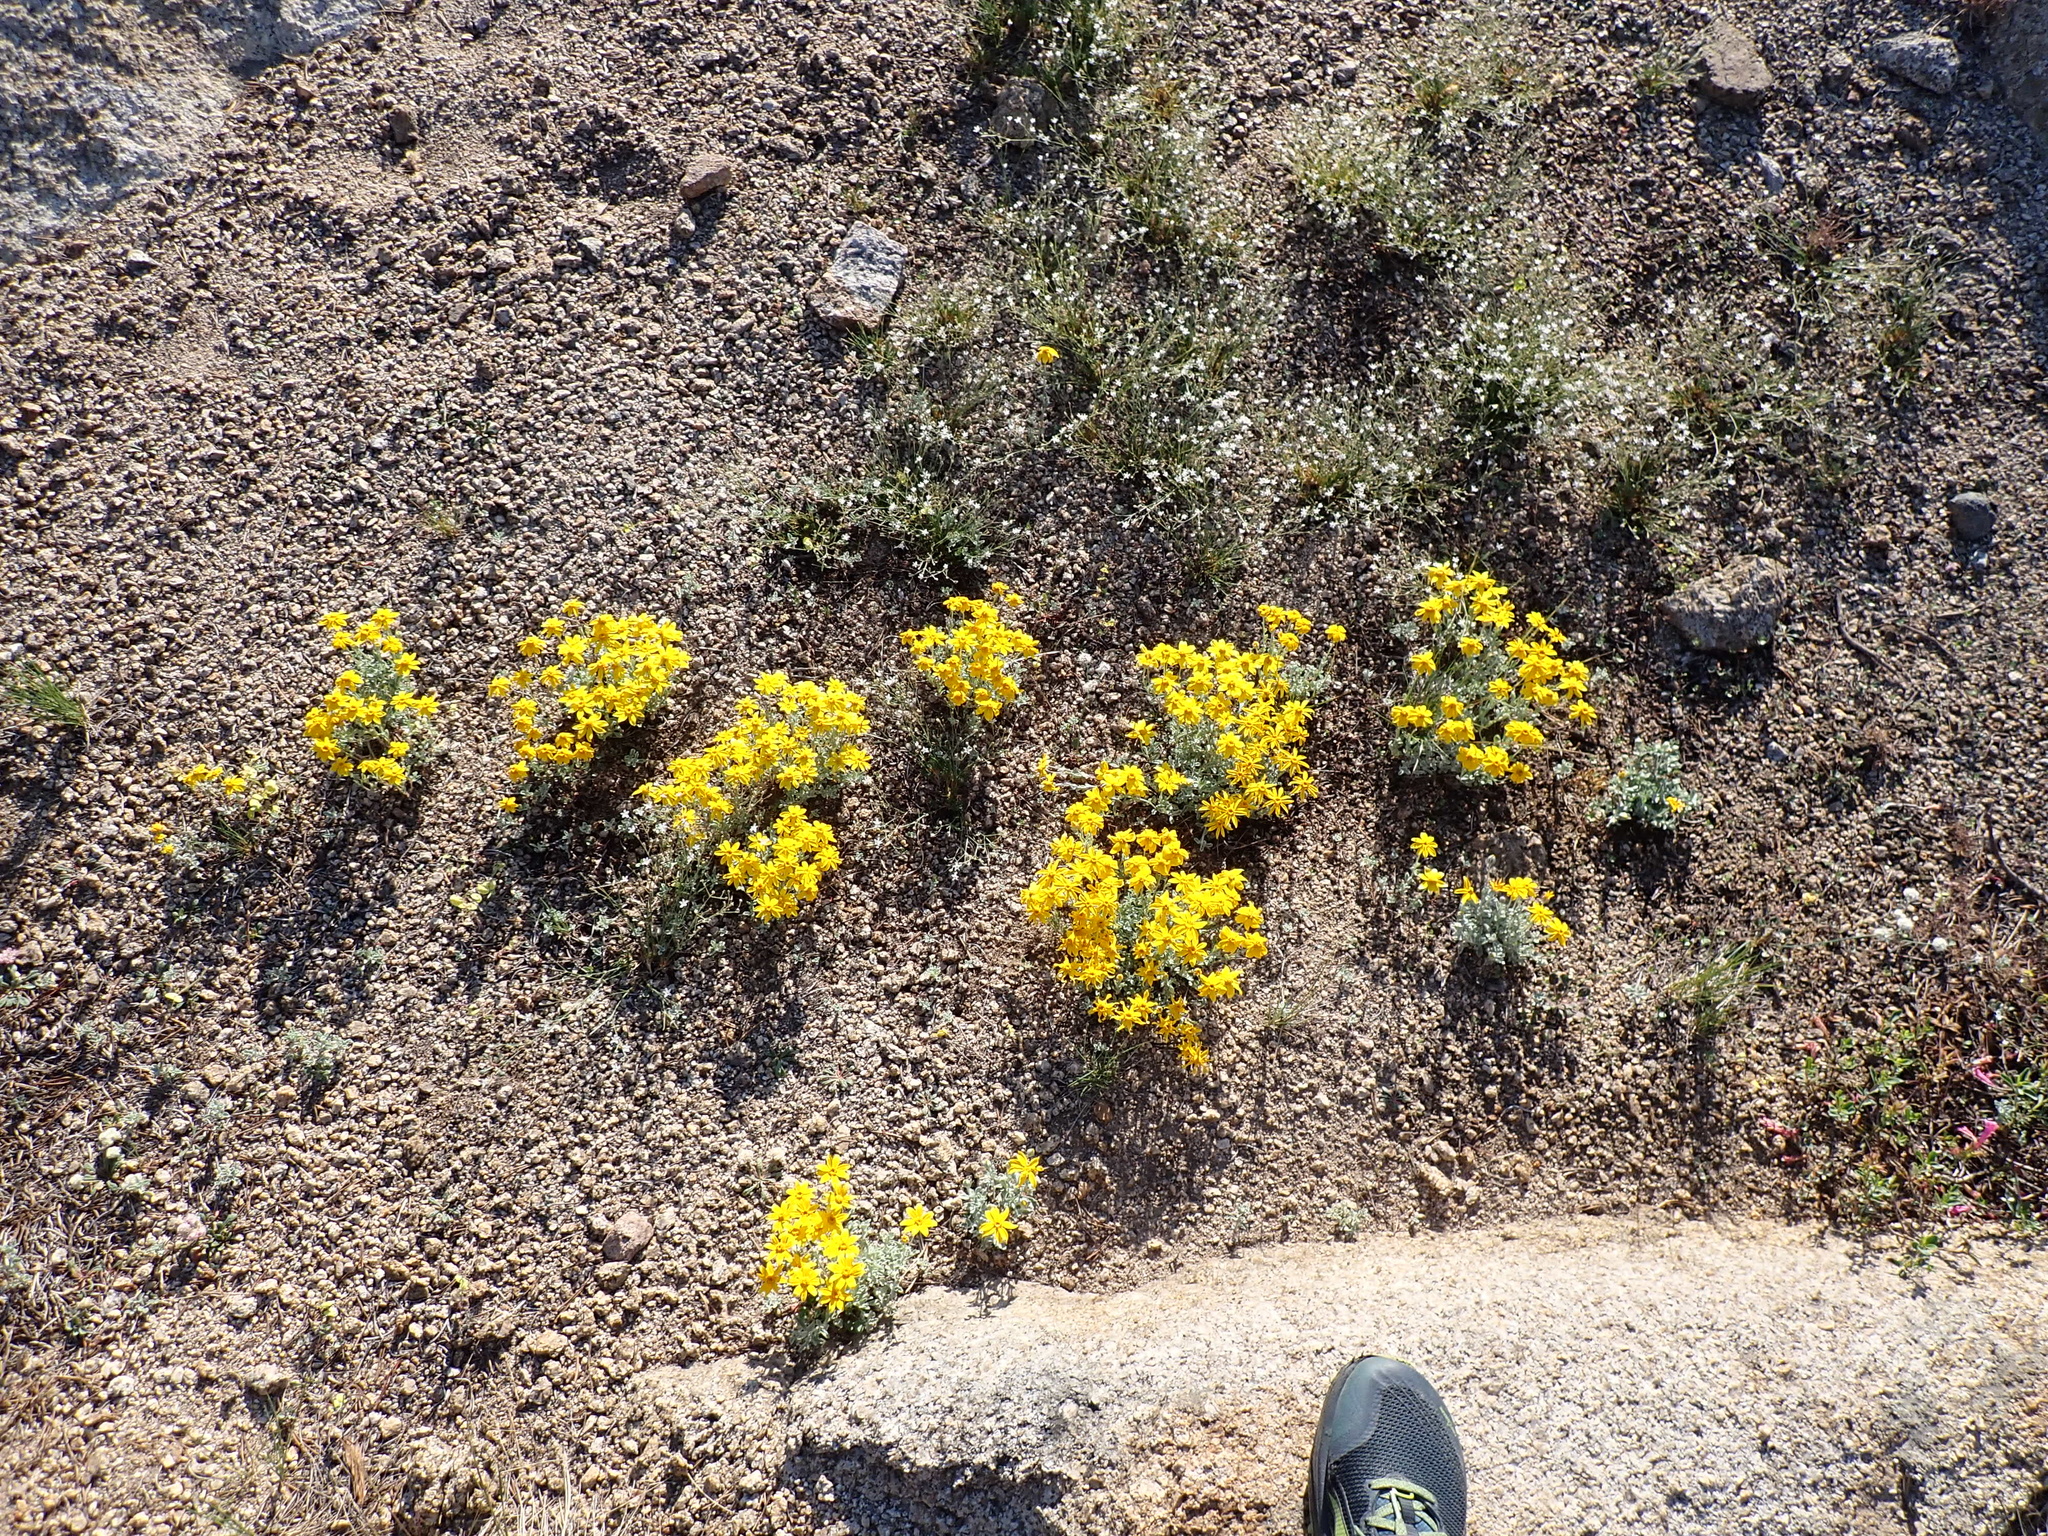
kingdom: Plantae
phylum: Tracheophyta
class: Magnoliopsida
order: Asterales
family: Asteraceae
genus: Eriophyllum
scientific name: Eriophyllum lanatum
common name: Common woolly-sunflower
